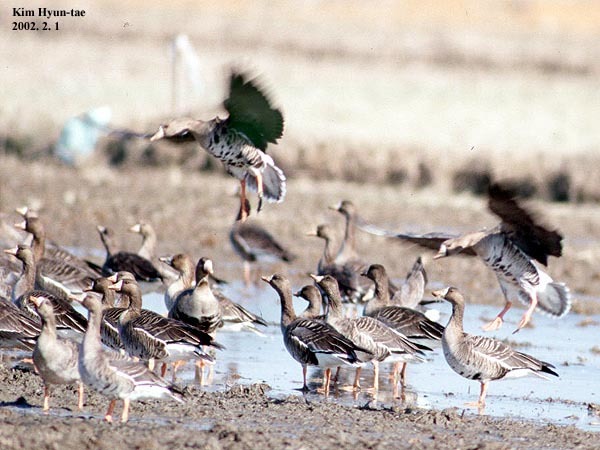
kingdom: Animalia
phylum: Chordata
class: Aves
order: Anseriformes
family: Anatidae
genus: Anser
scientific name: Anser albifrons
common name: Greater white-fronted goose
